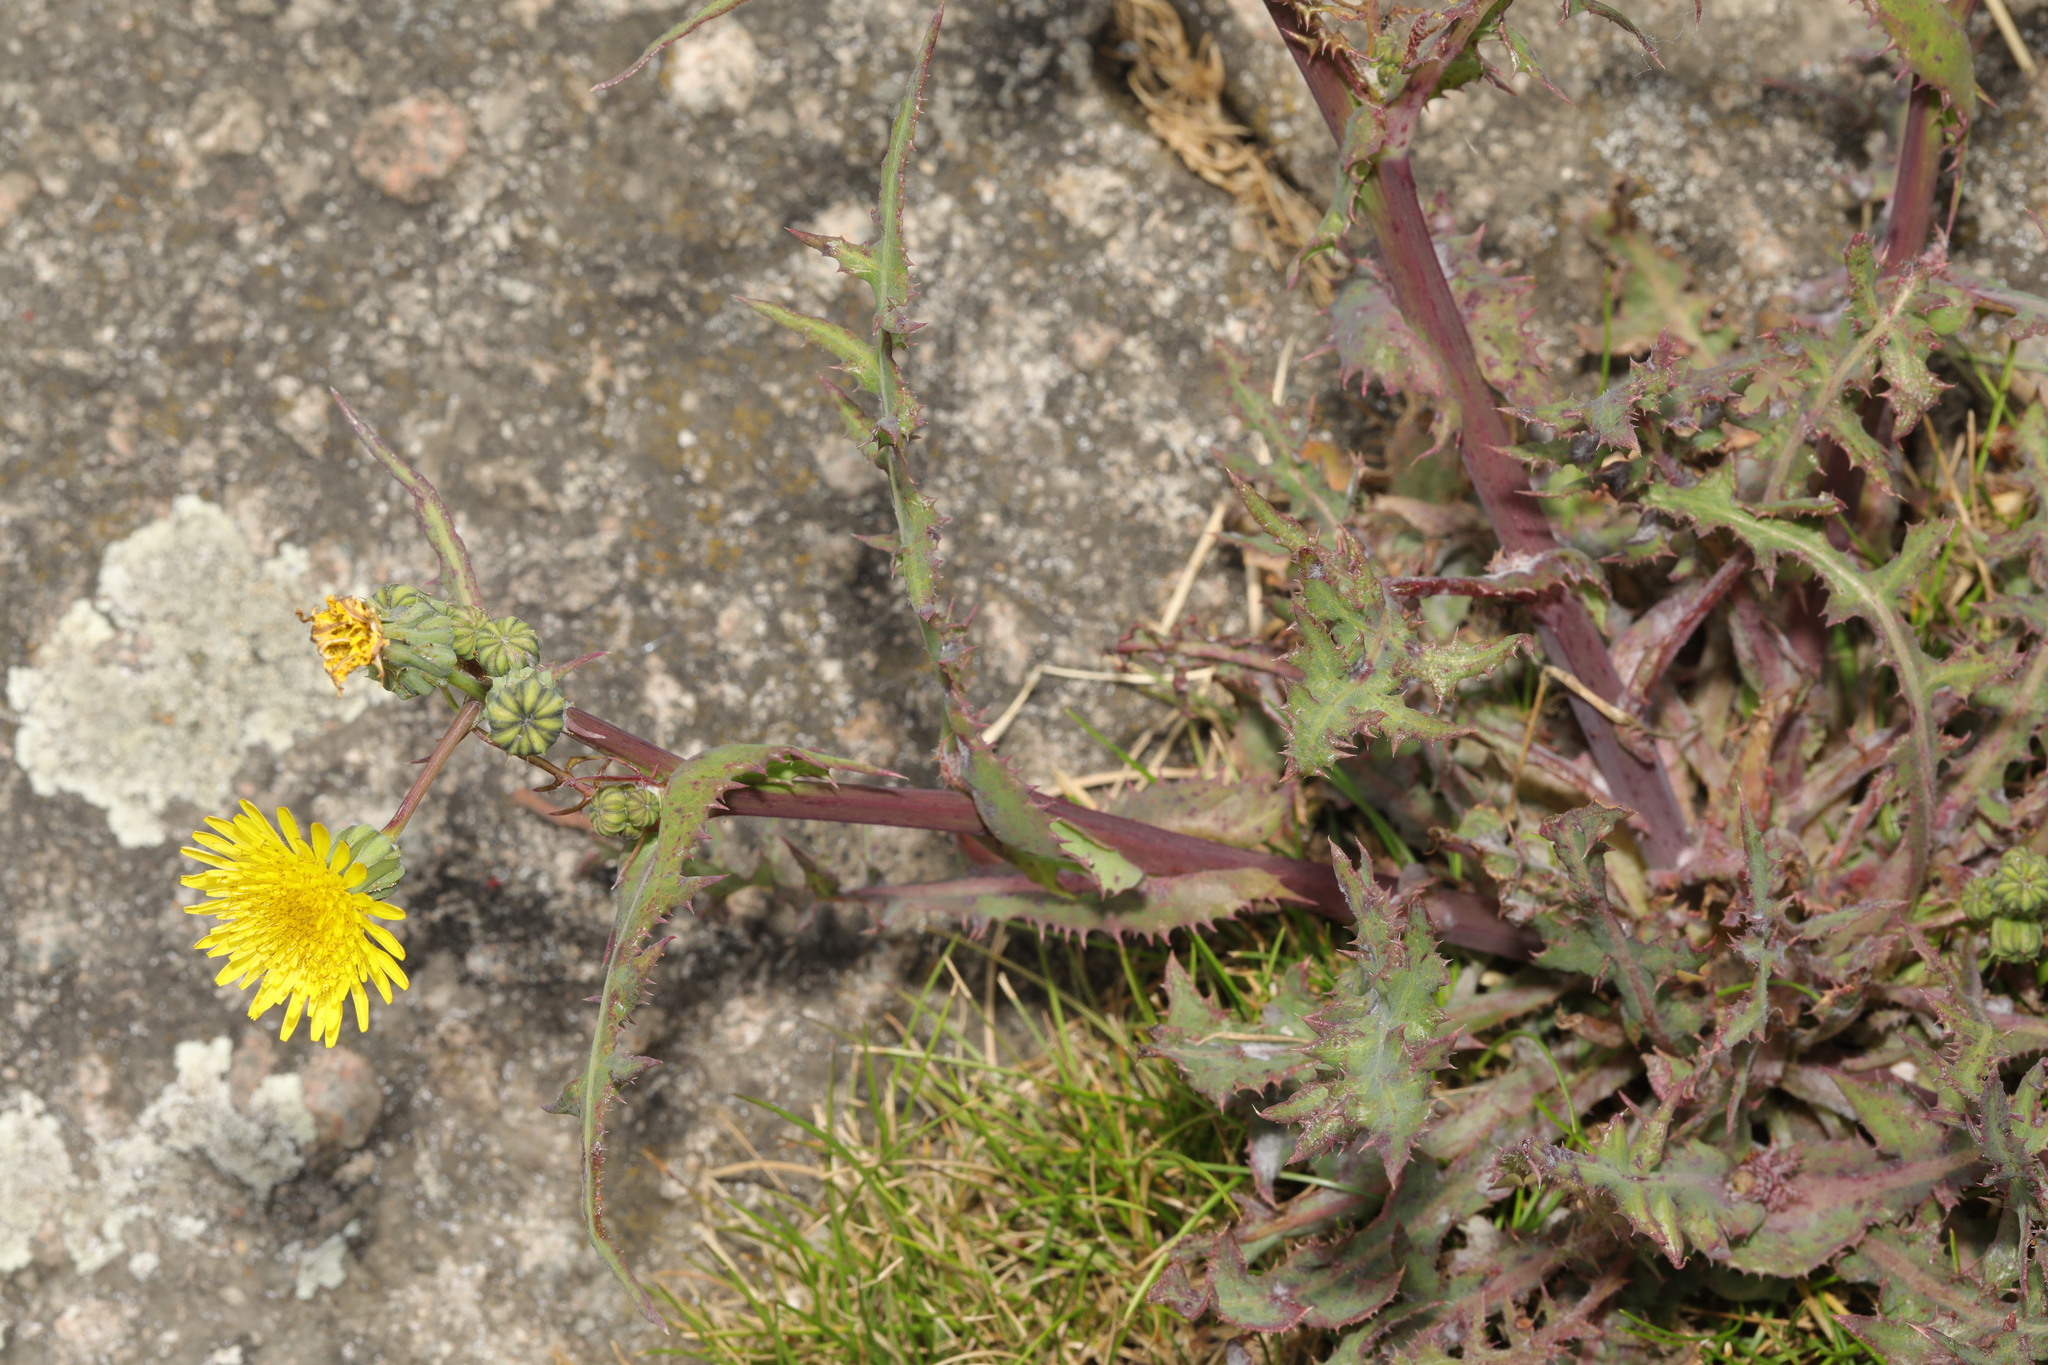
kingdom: Plantae
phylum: Tracheophyta
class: Magnoliopsida
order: Asterales
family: Asteraceae
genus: Sonchus
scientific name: Sonchus oleraceus
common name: Common sowthistle
